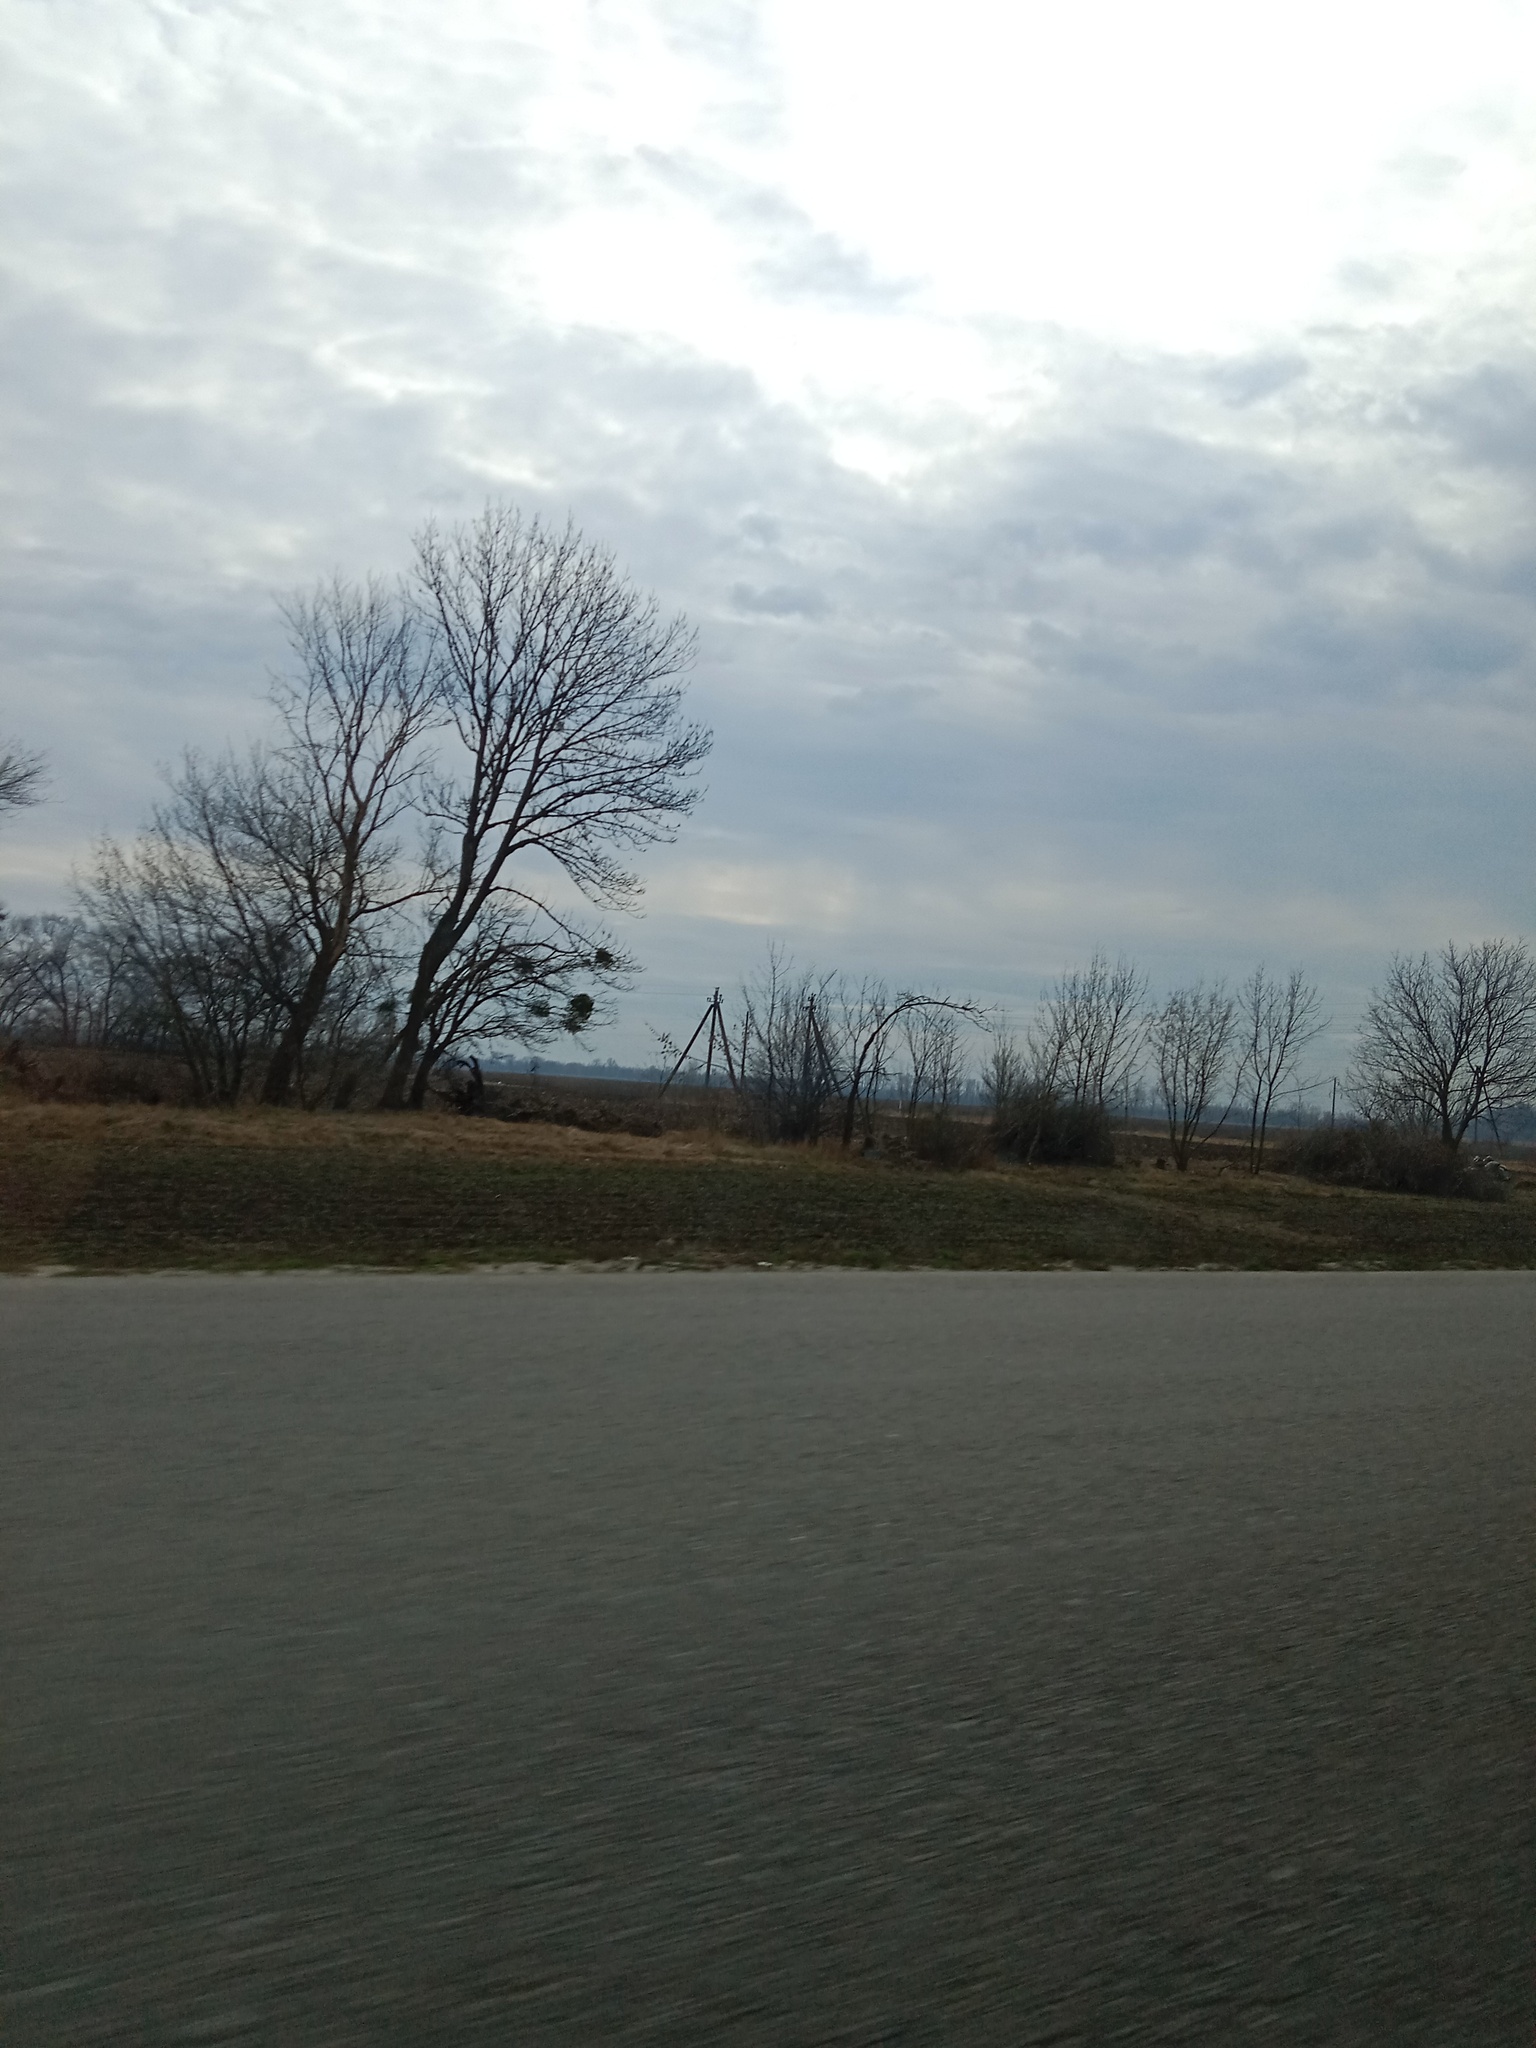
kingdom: Plantae
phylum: Tracheophyta
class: Magnoliopsida
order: Santalales
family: Viscaceae
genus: Viscum
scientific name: Viscum album
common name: Mistletoe
